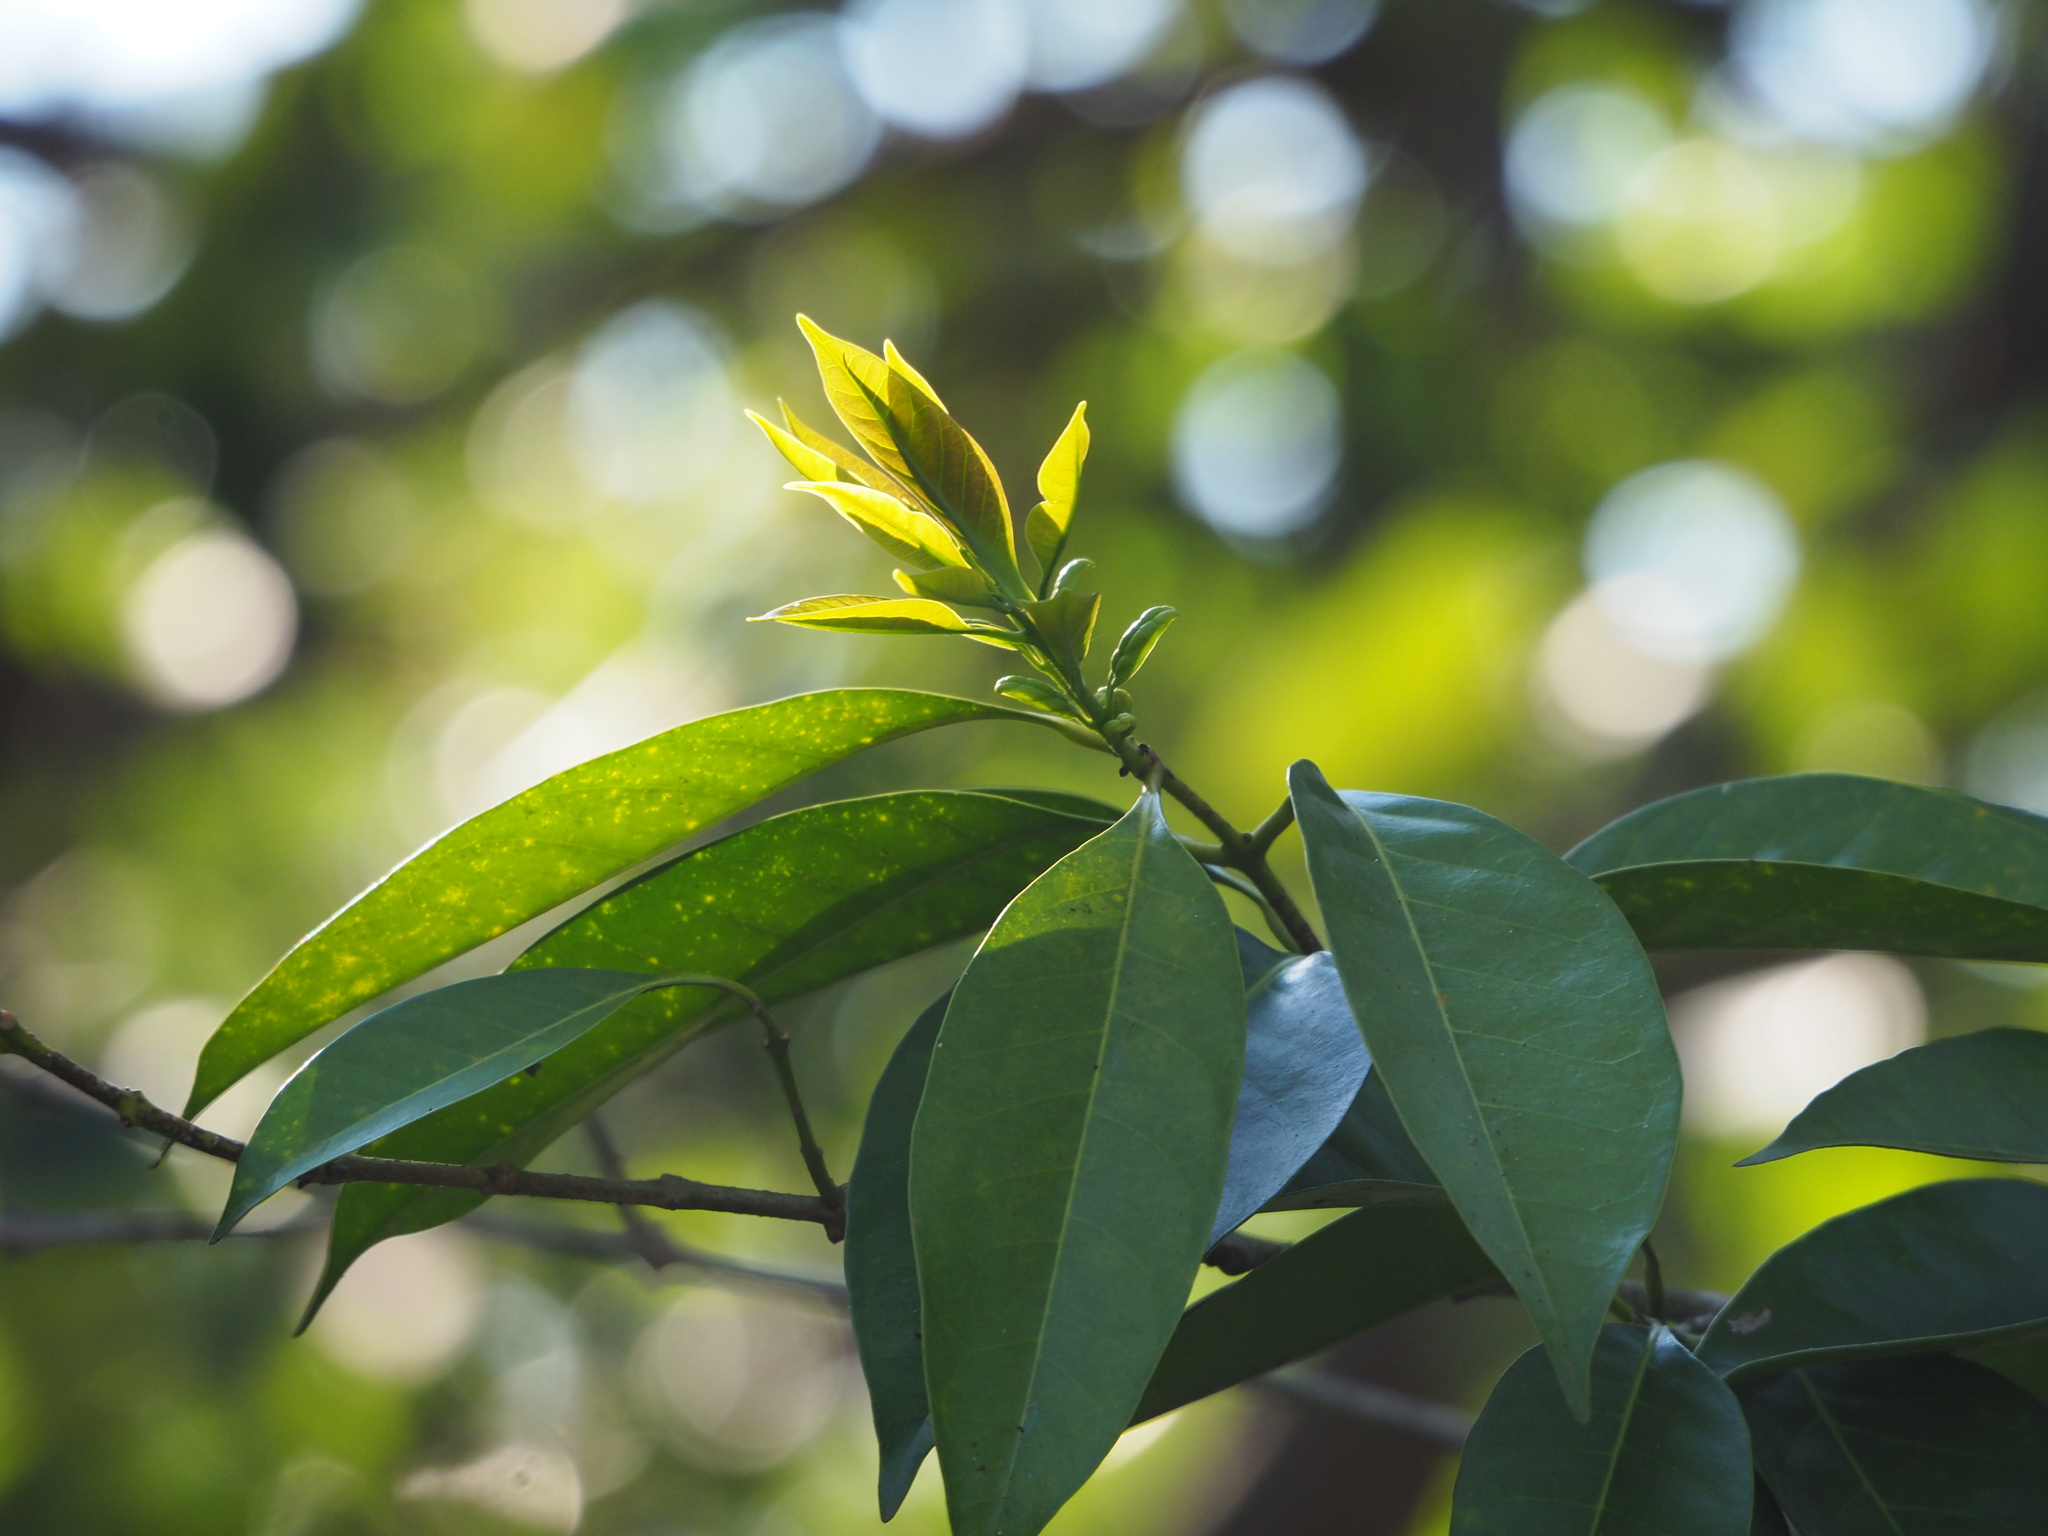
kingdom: Plantae
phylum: Tracheophyta
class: Magnoliopsida
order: Lamiales
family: Oleaceae
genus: Chengiodendron
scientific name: Chengiodendron matsumuranum
